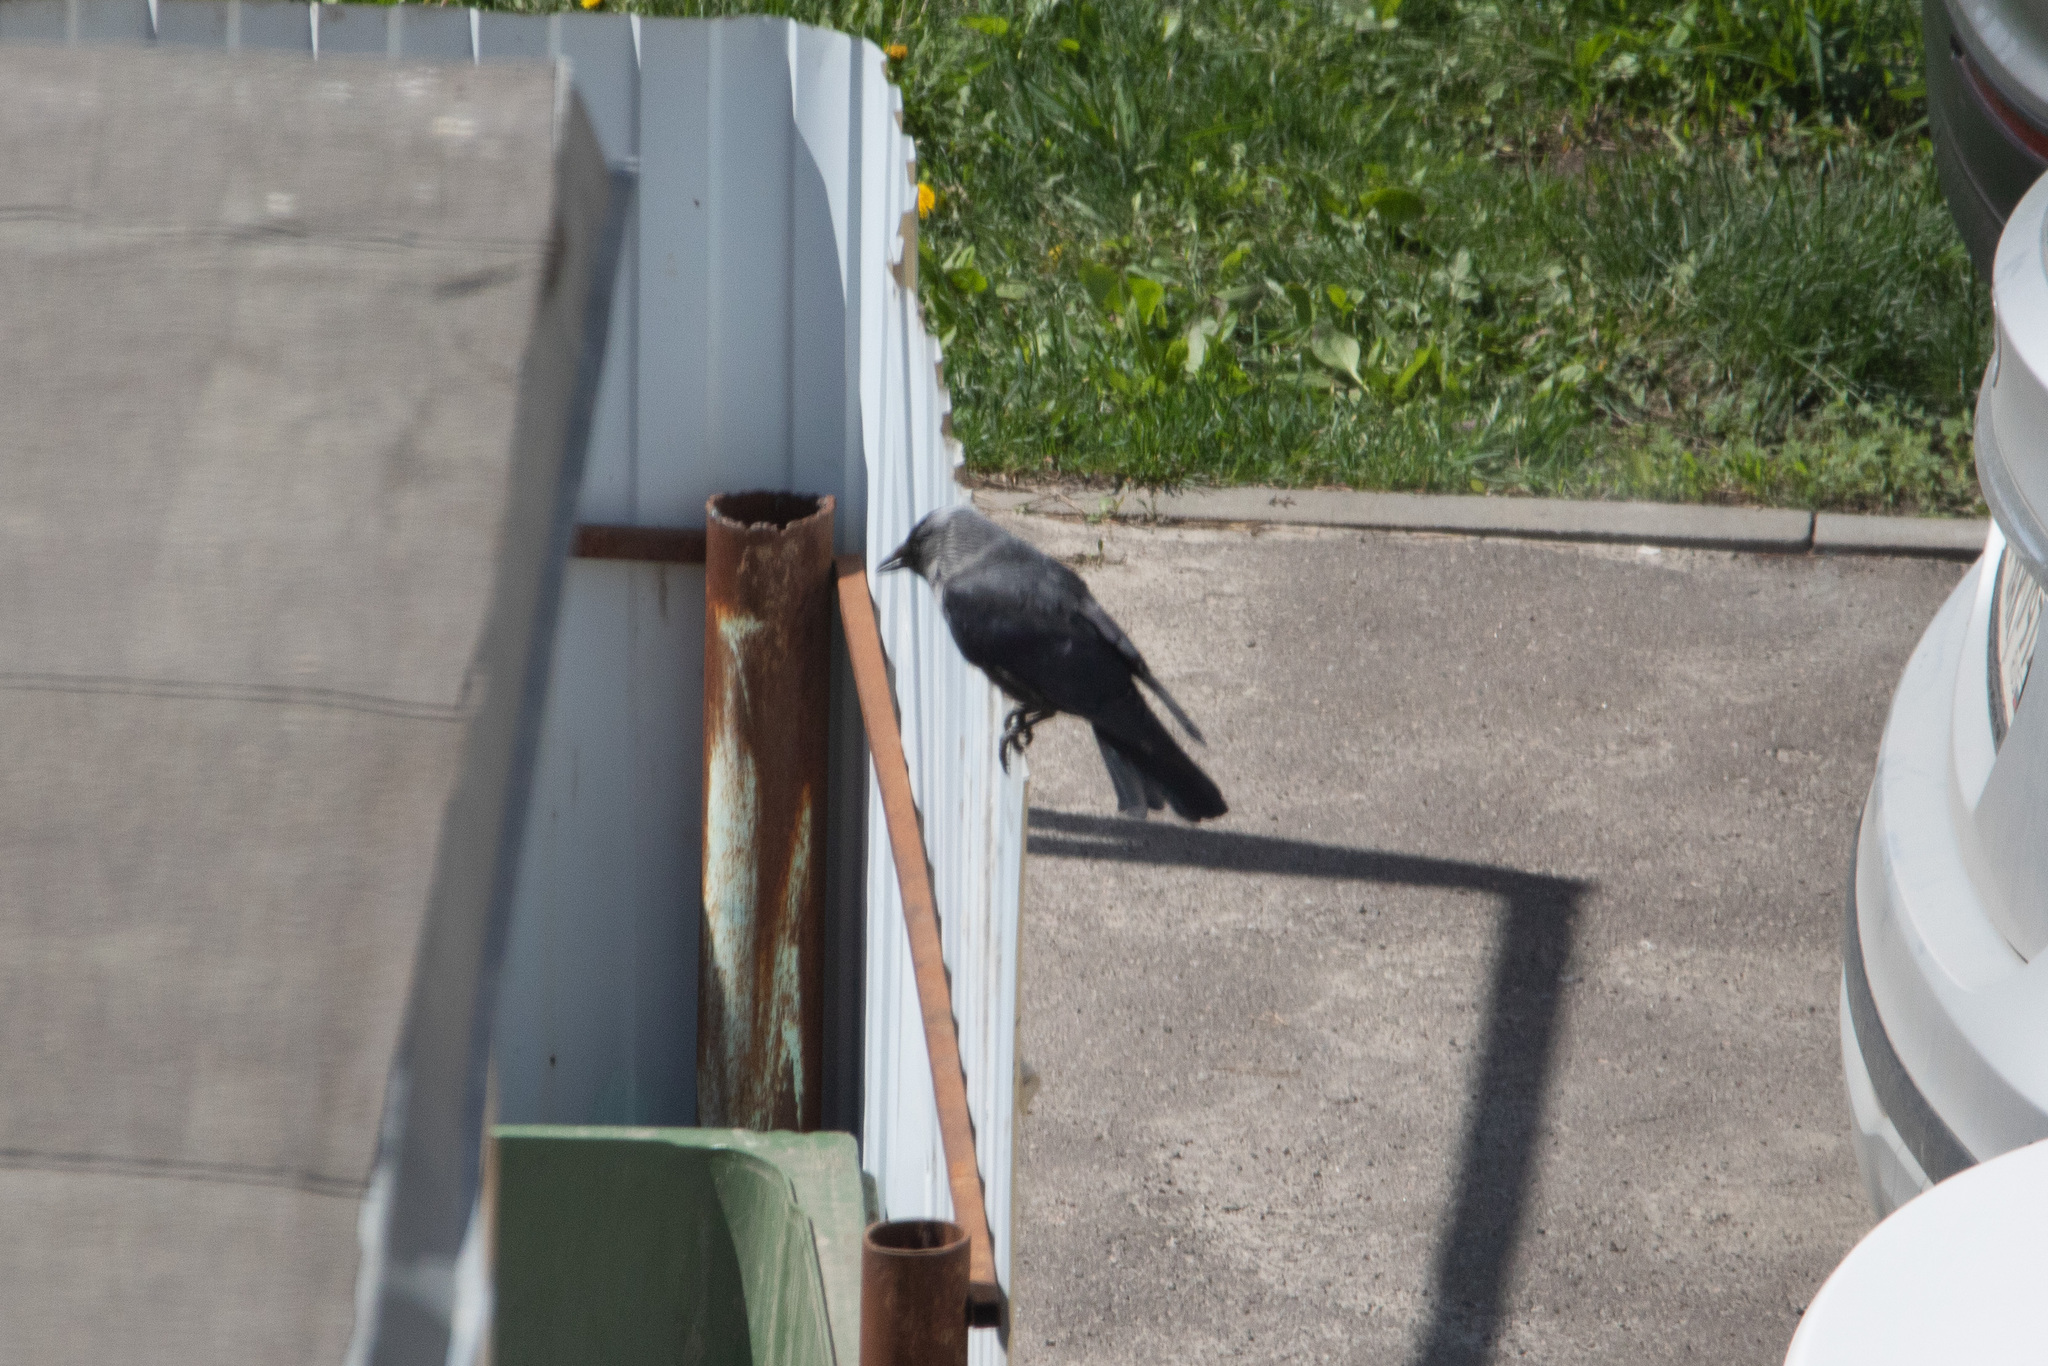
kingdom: Animalia
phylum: Chordata
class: Aves
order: Passeriformes
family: Corvidae
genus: Coloeus
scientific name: Coloeus monedula
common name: Western jackdaw
